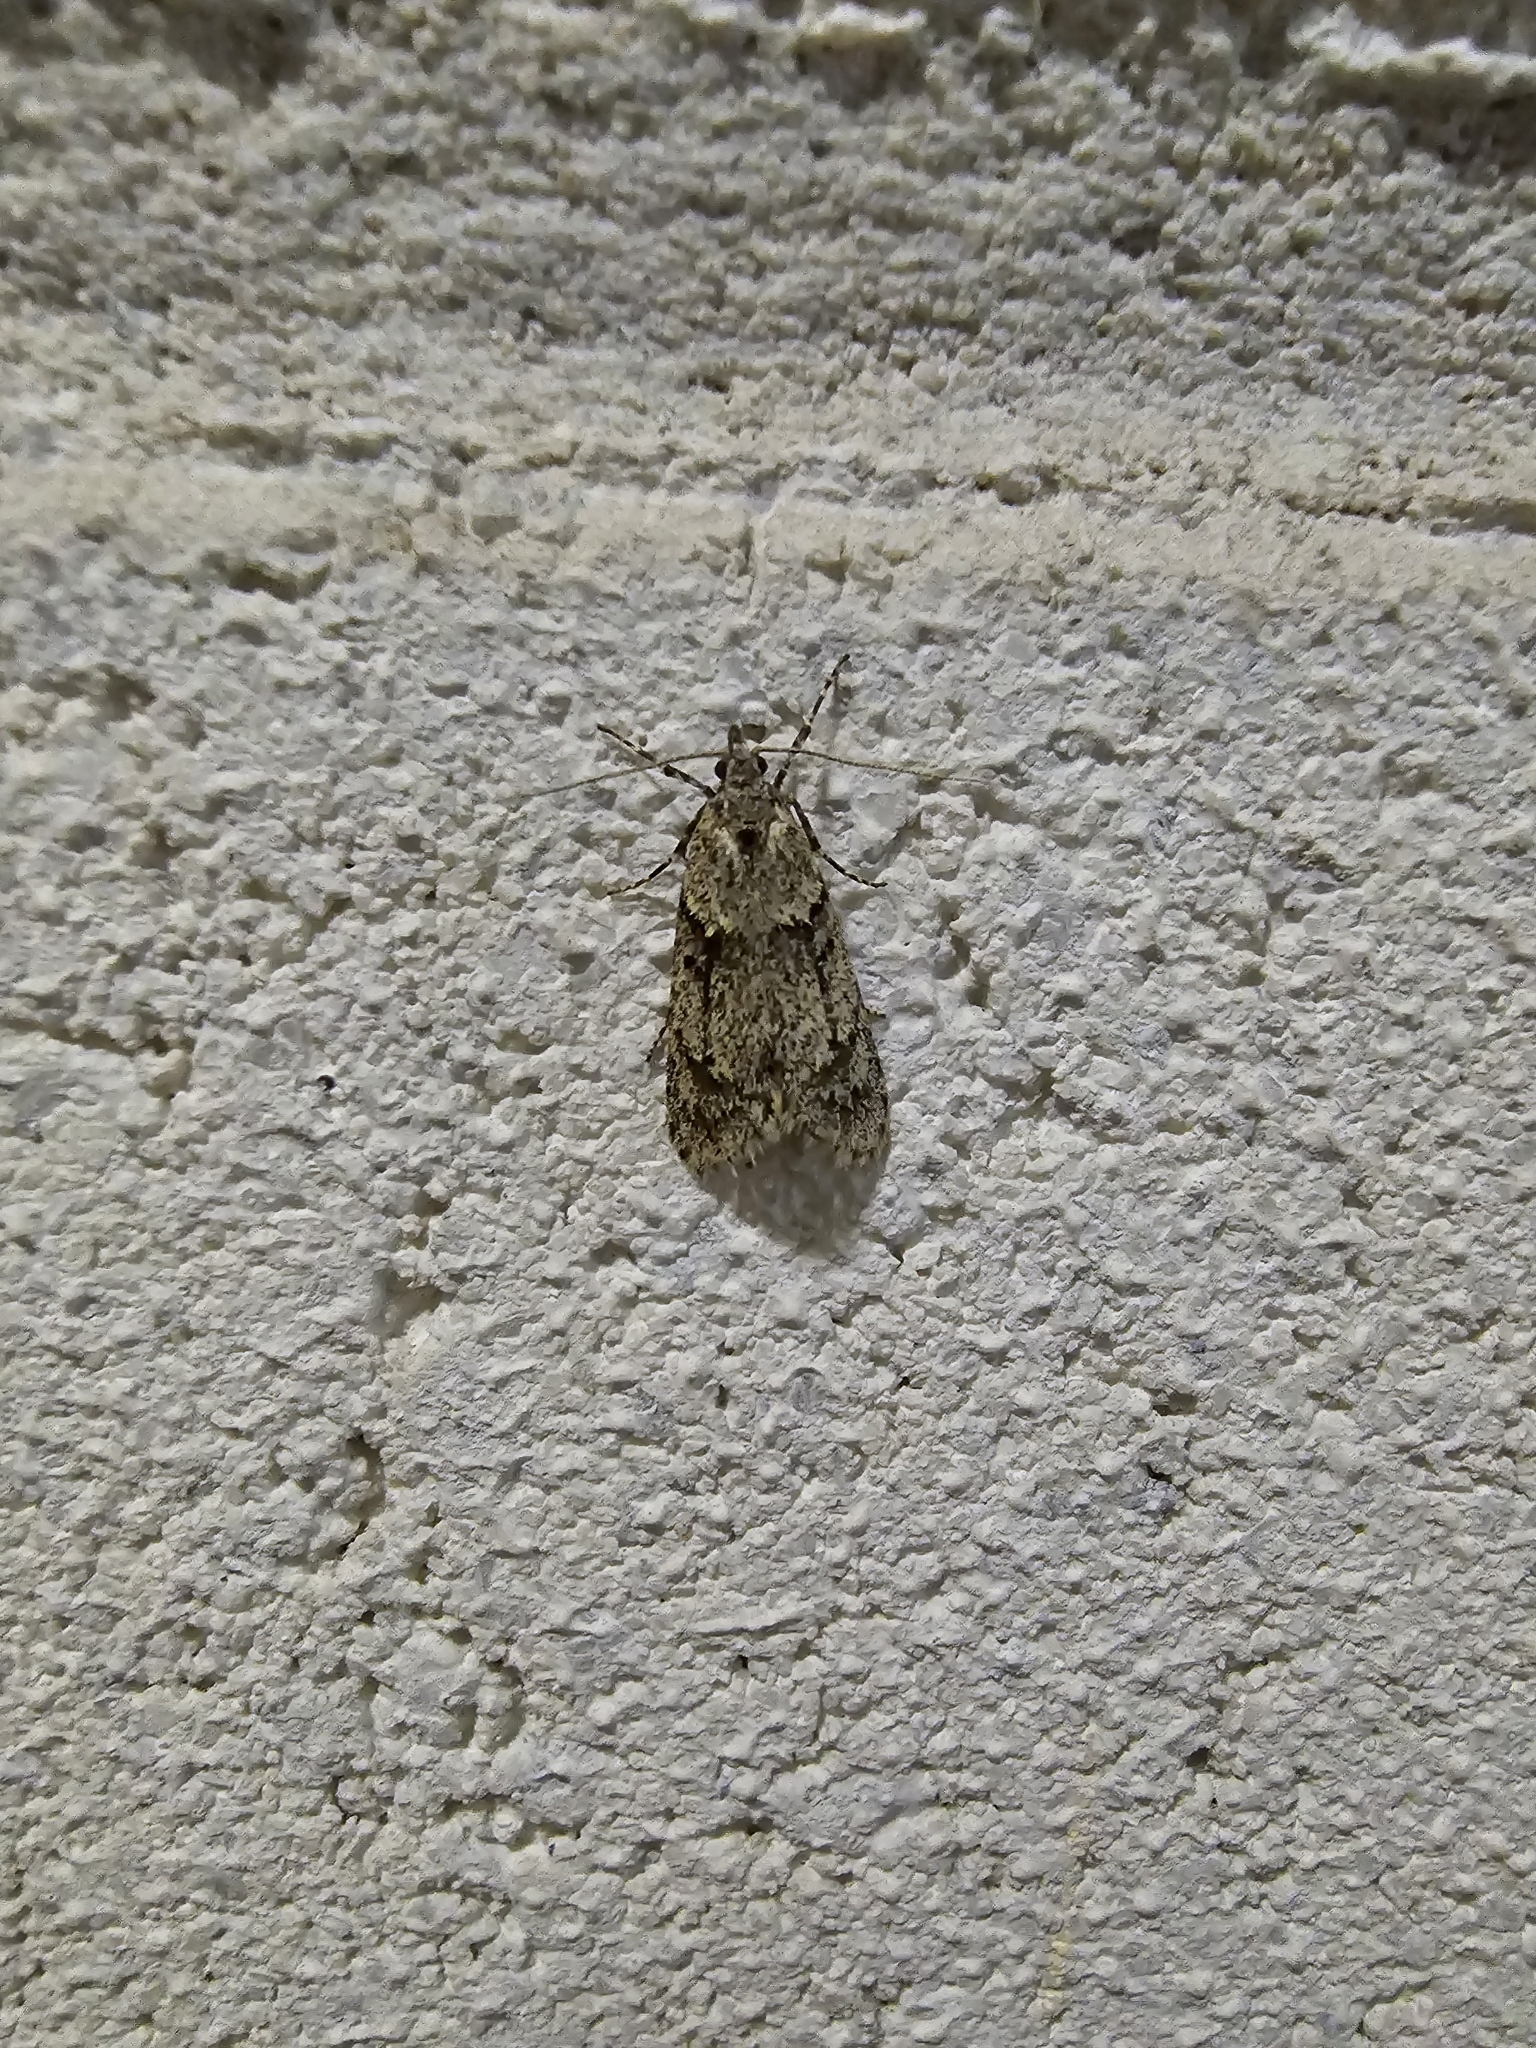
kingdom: Animalia
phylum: Arthropoda
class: Insecta
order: Lepidoptera
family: Lypusidae
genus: Diurnea
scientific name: Diurnea fagella
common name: March tubic
